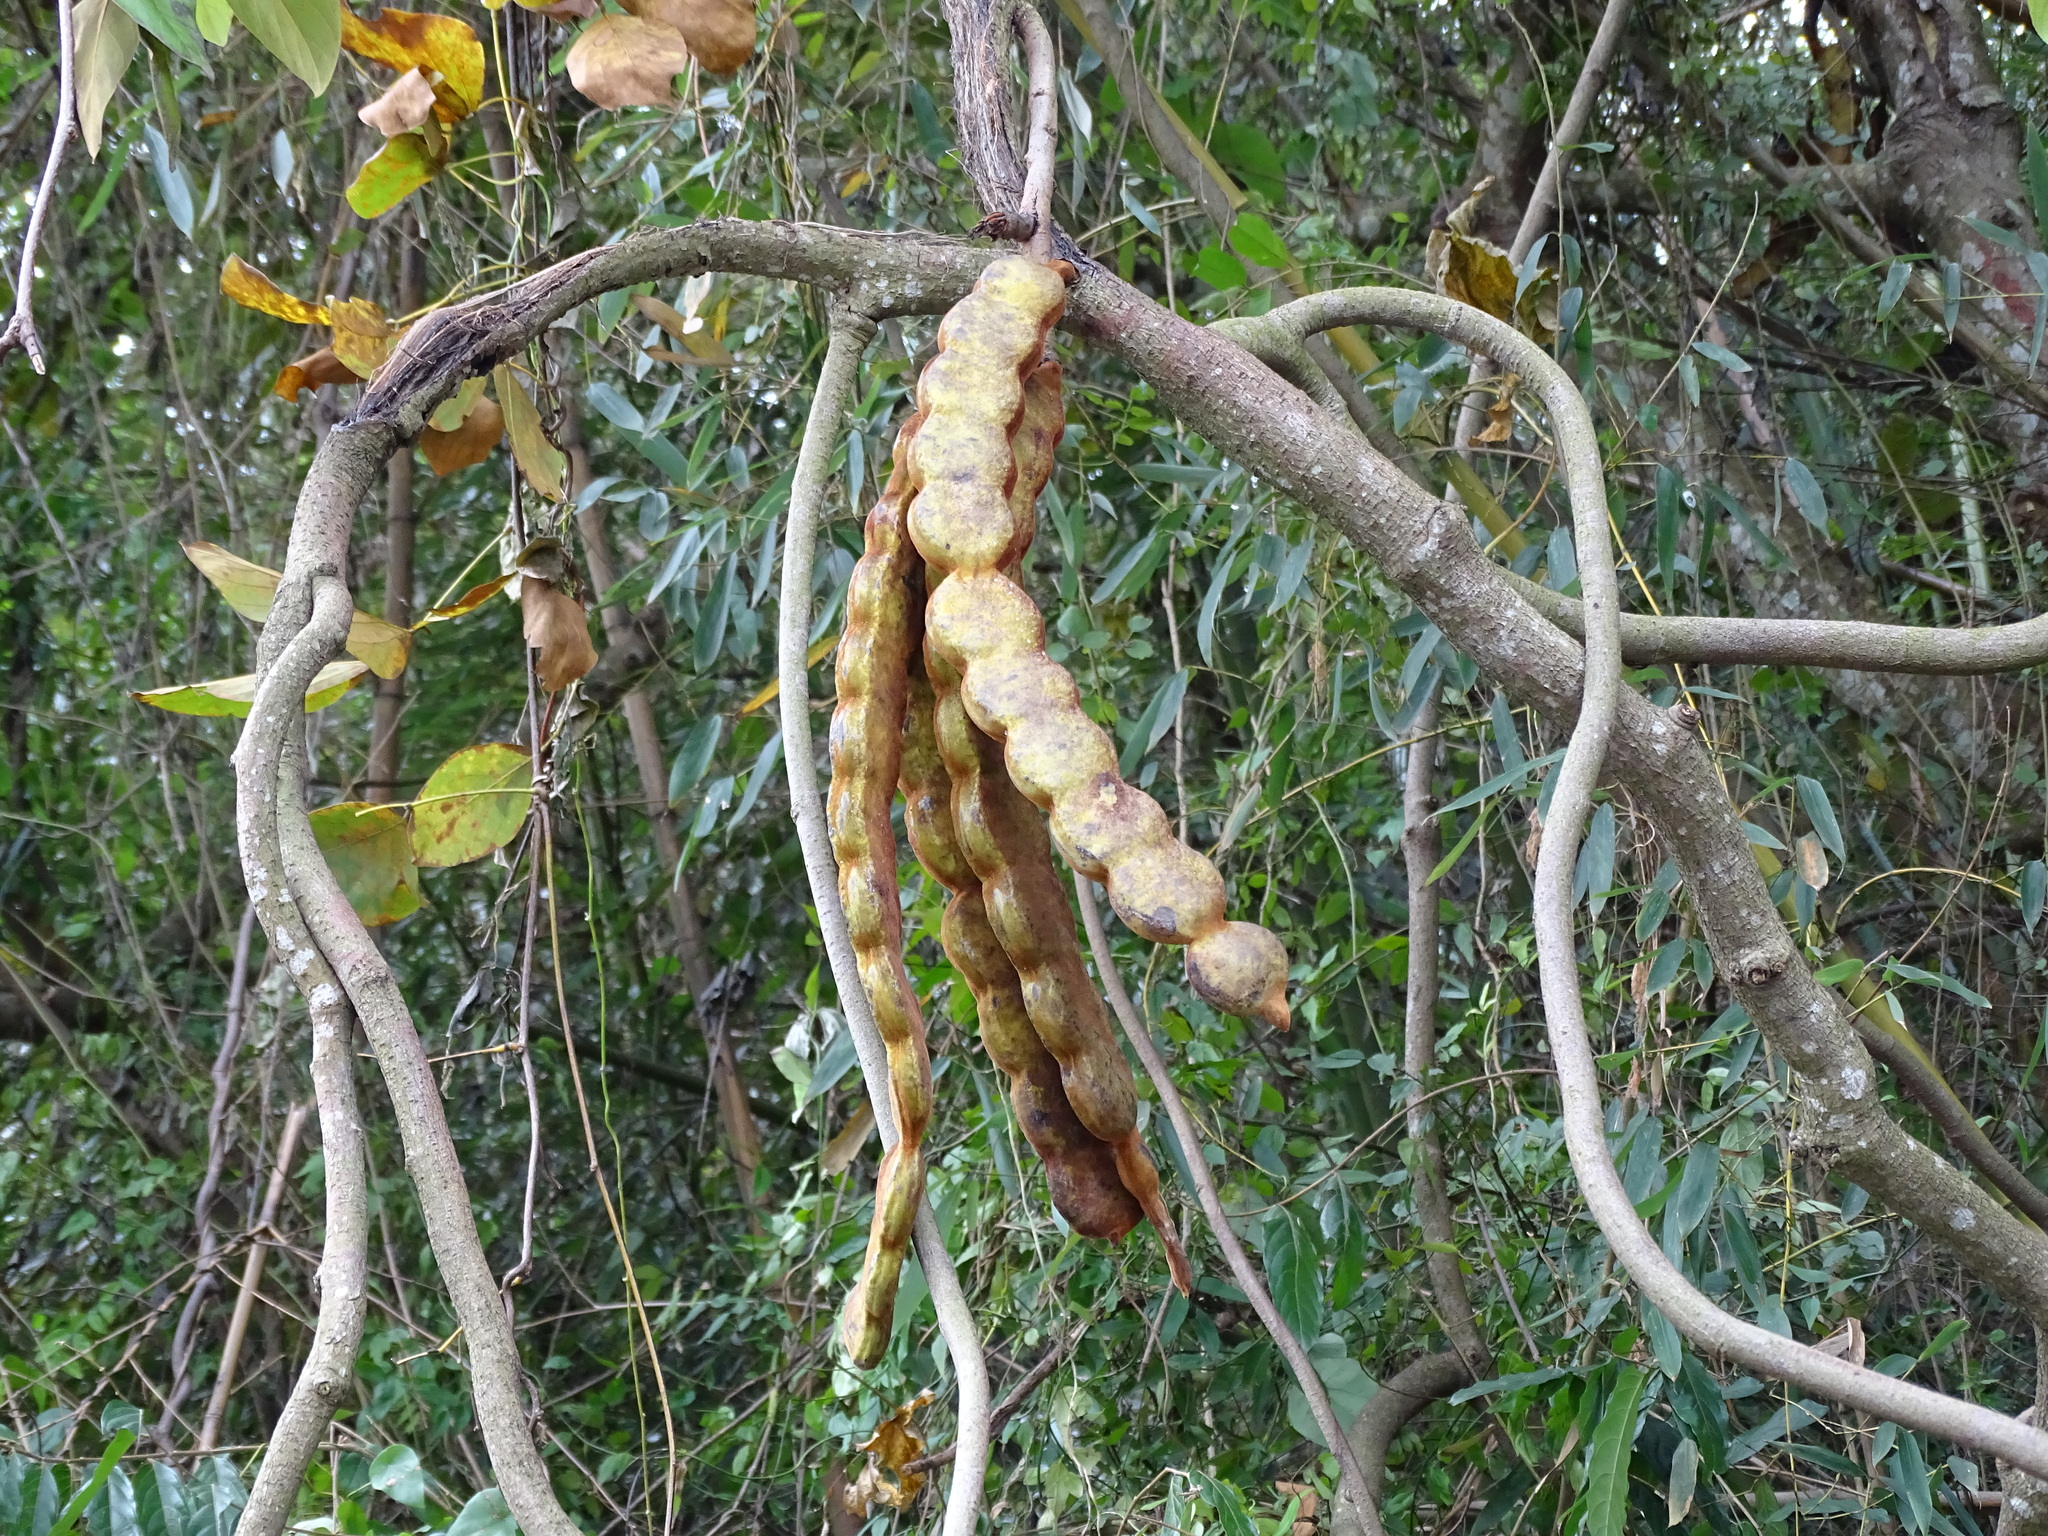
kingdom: Plantae
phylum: Tracheophyta
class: Magnoliopsida
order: Fabales
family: Fabaceae
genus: Mucuna
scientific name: Mucuna macrocarpa
